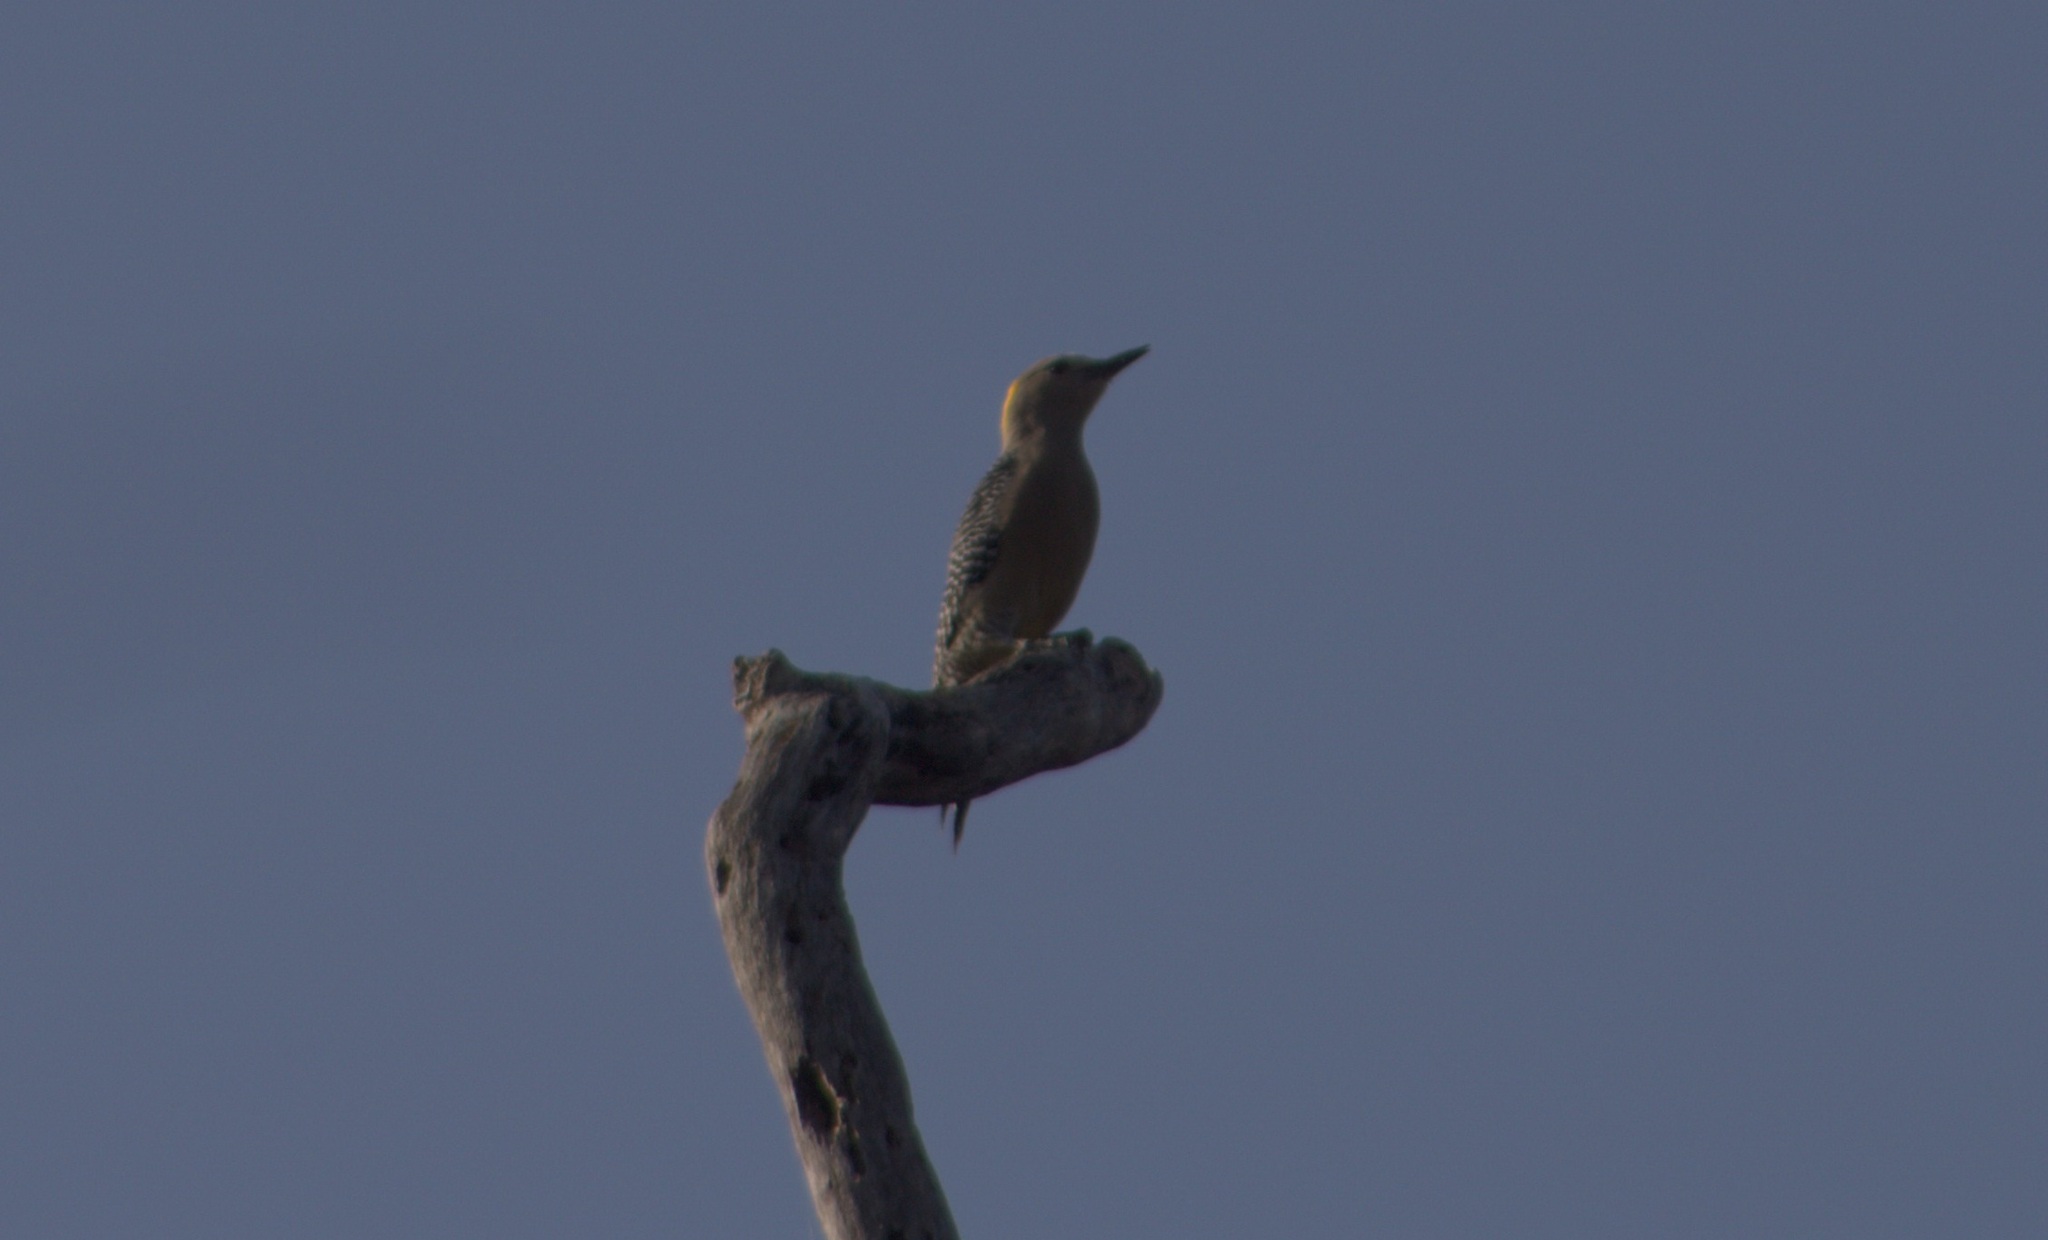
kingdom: Animalia
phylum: Chordata
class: Aves
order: Piciformes
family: Picidae
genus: Melanerpes
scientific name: Melanerpes aurifrons
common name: Golden-fronted woodpecker
